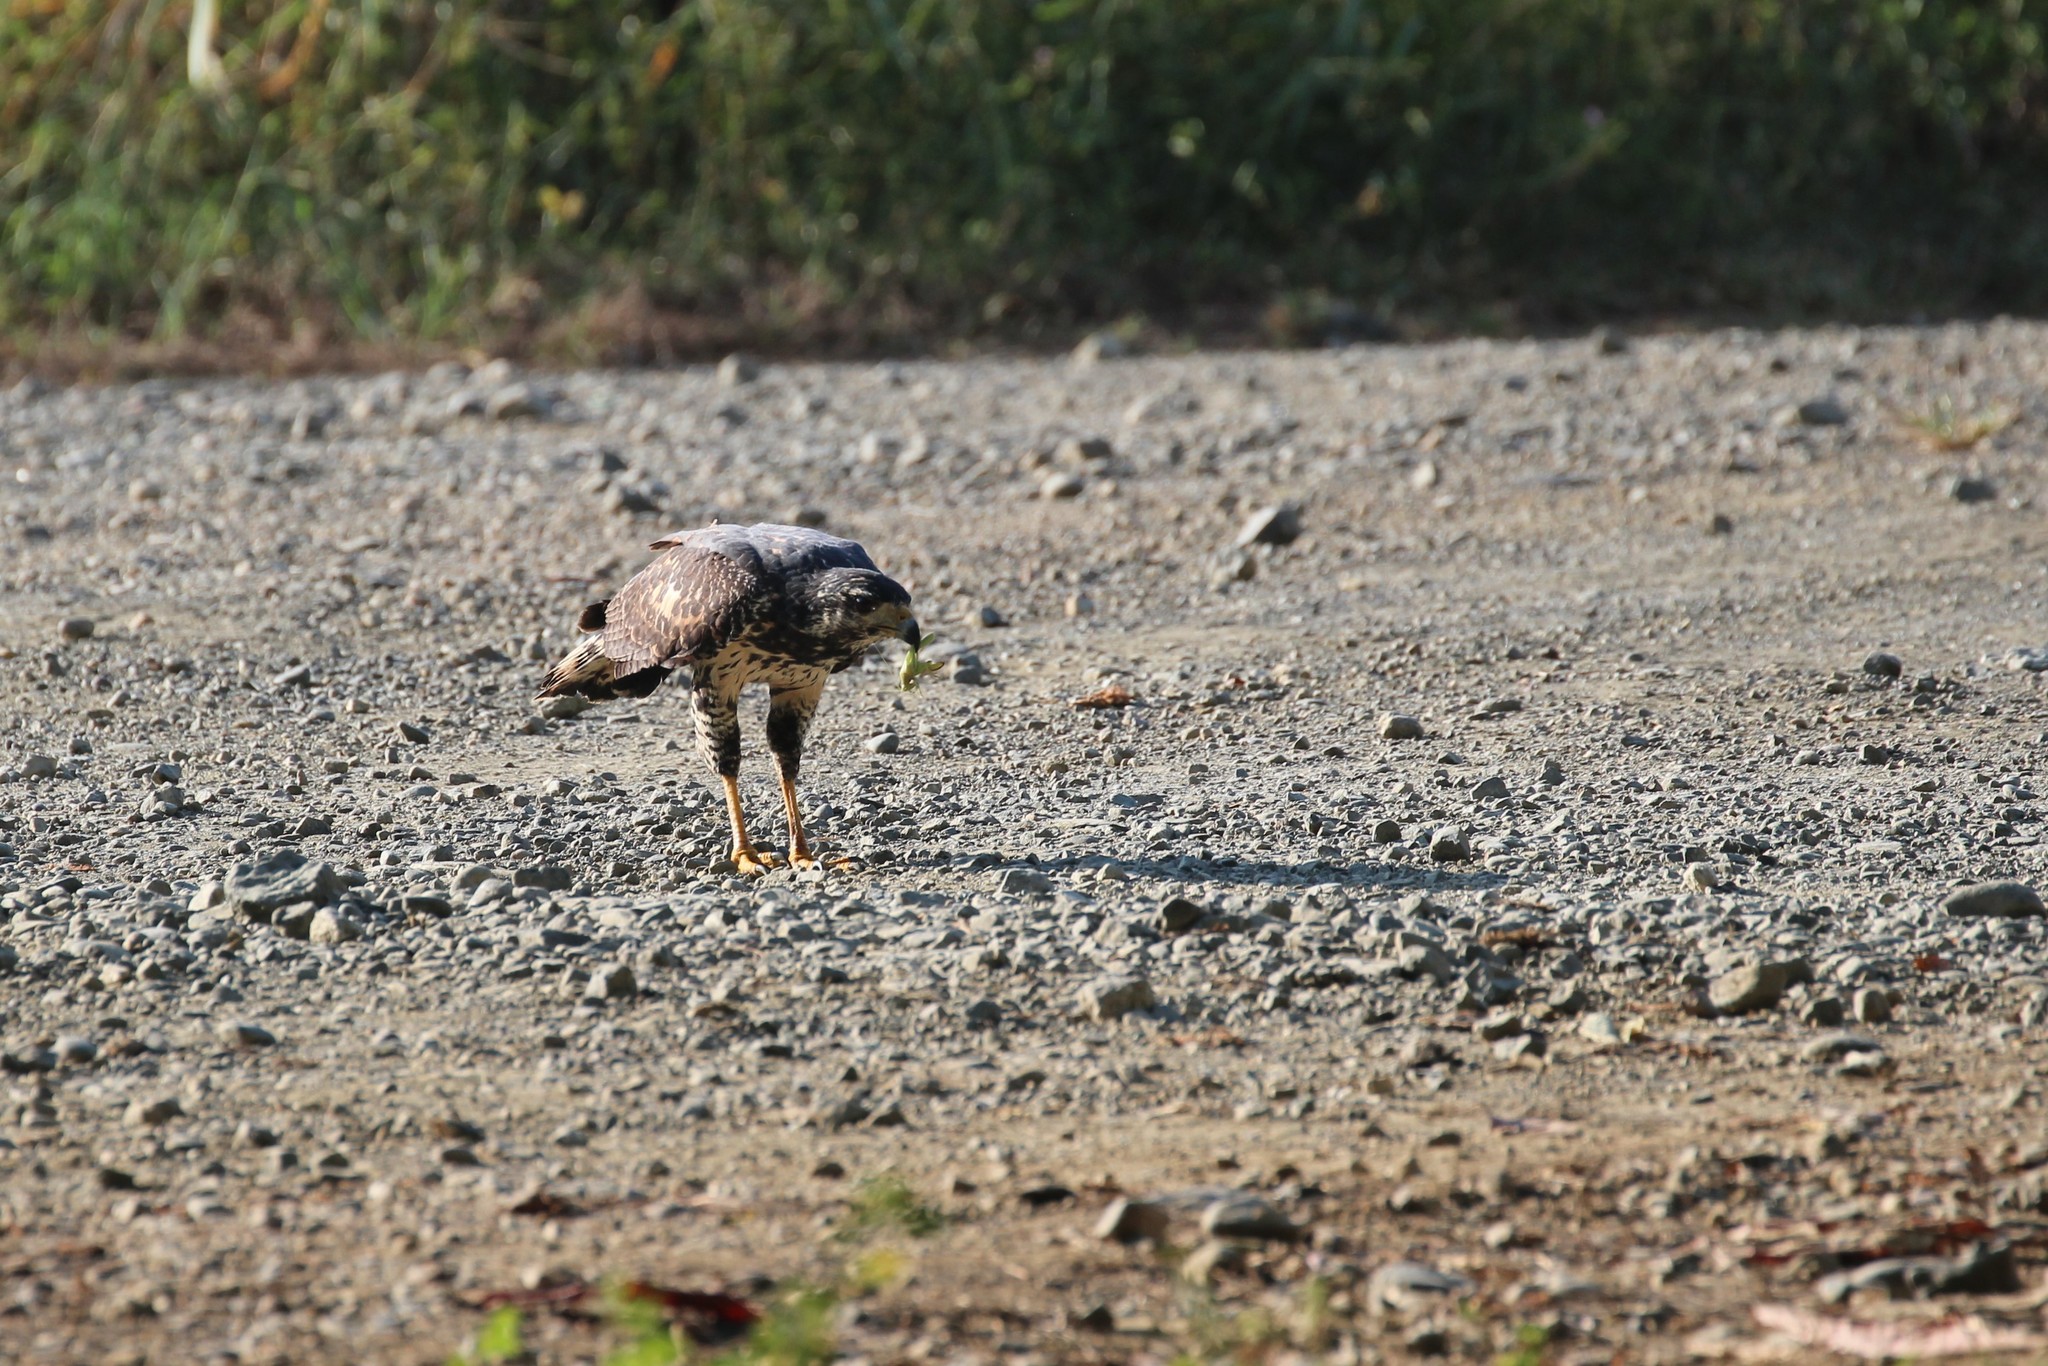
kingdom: Animalia
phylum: Chordata
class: Aves
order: Accipitriformes
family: Accipitridae
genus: Buteogallus
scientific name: Buteogallus anthracinus
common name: Common black hawk
